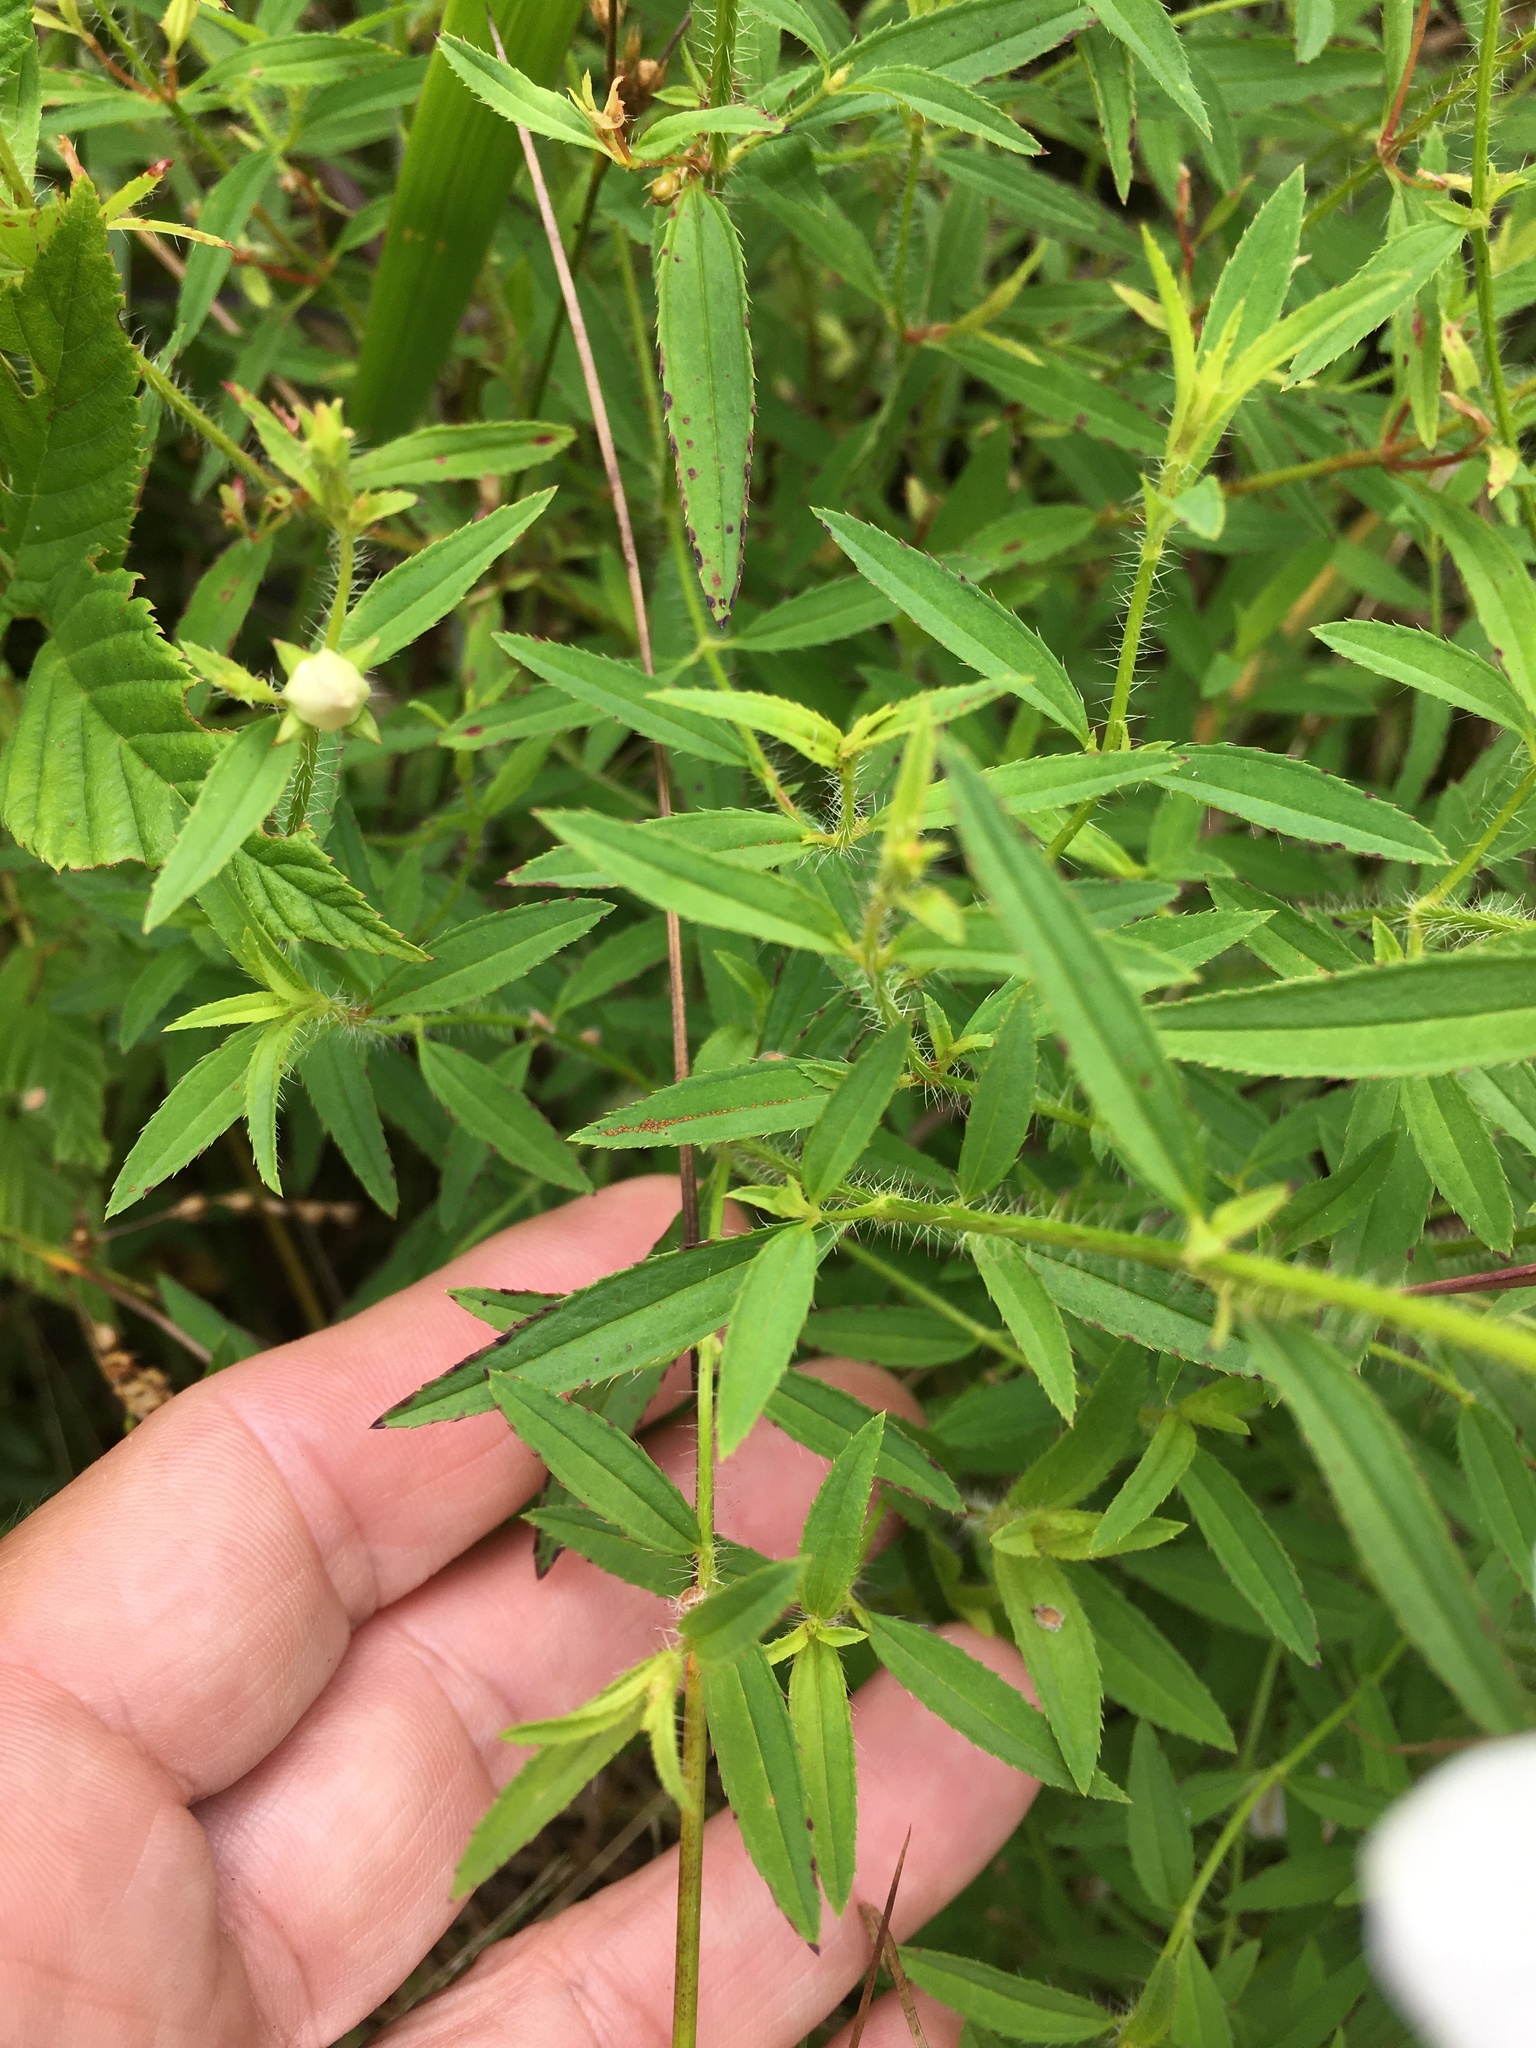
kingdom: Plantae
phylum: Tracheophyta
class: Magnoliopsida
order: Myrtales
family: Melastomataceae
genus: Rhexia
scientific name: Rhexia mariana
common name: Dull meadow-pitcher
